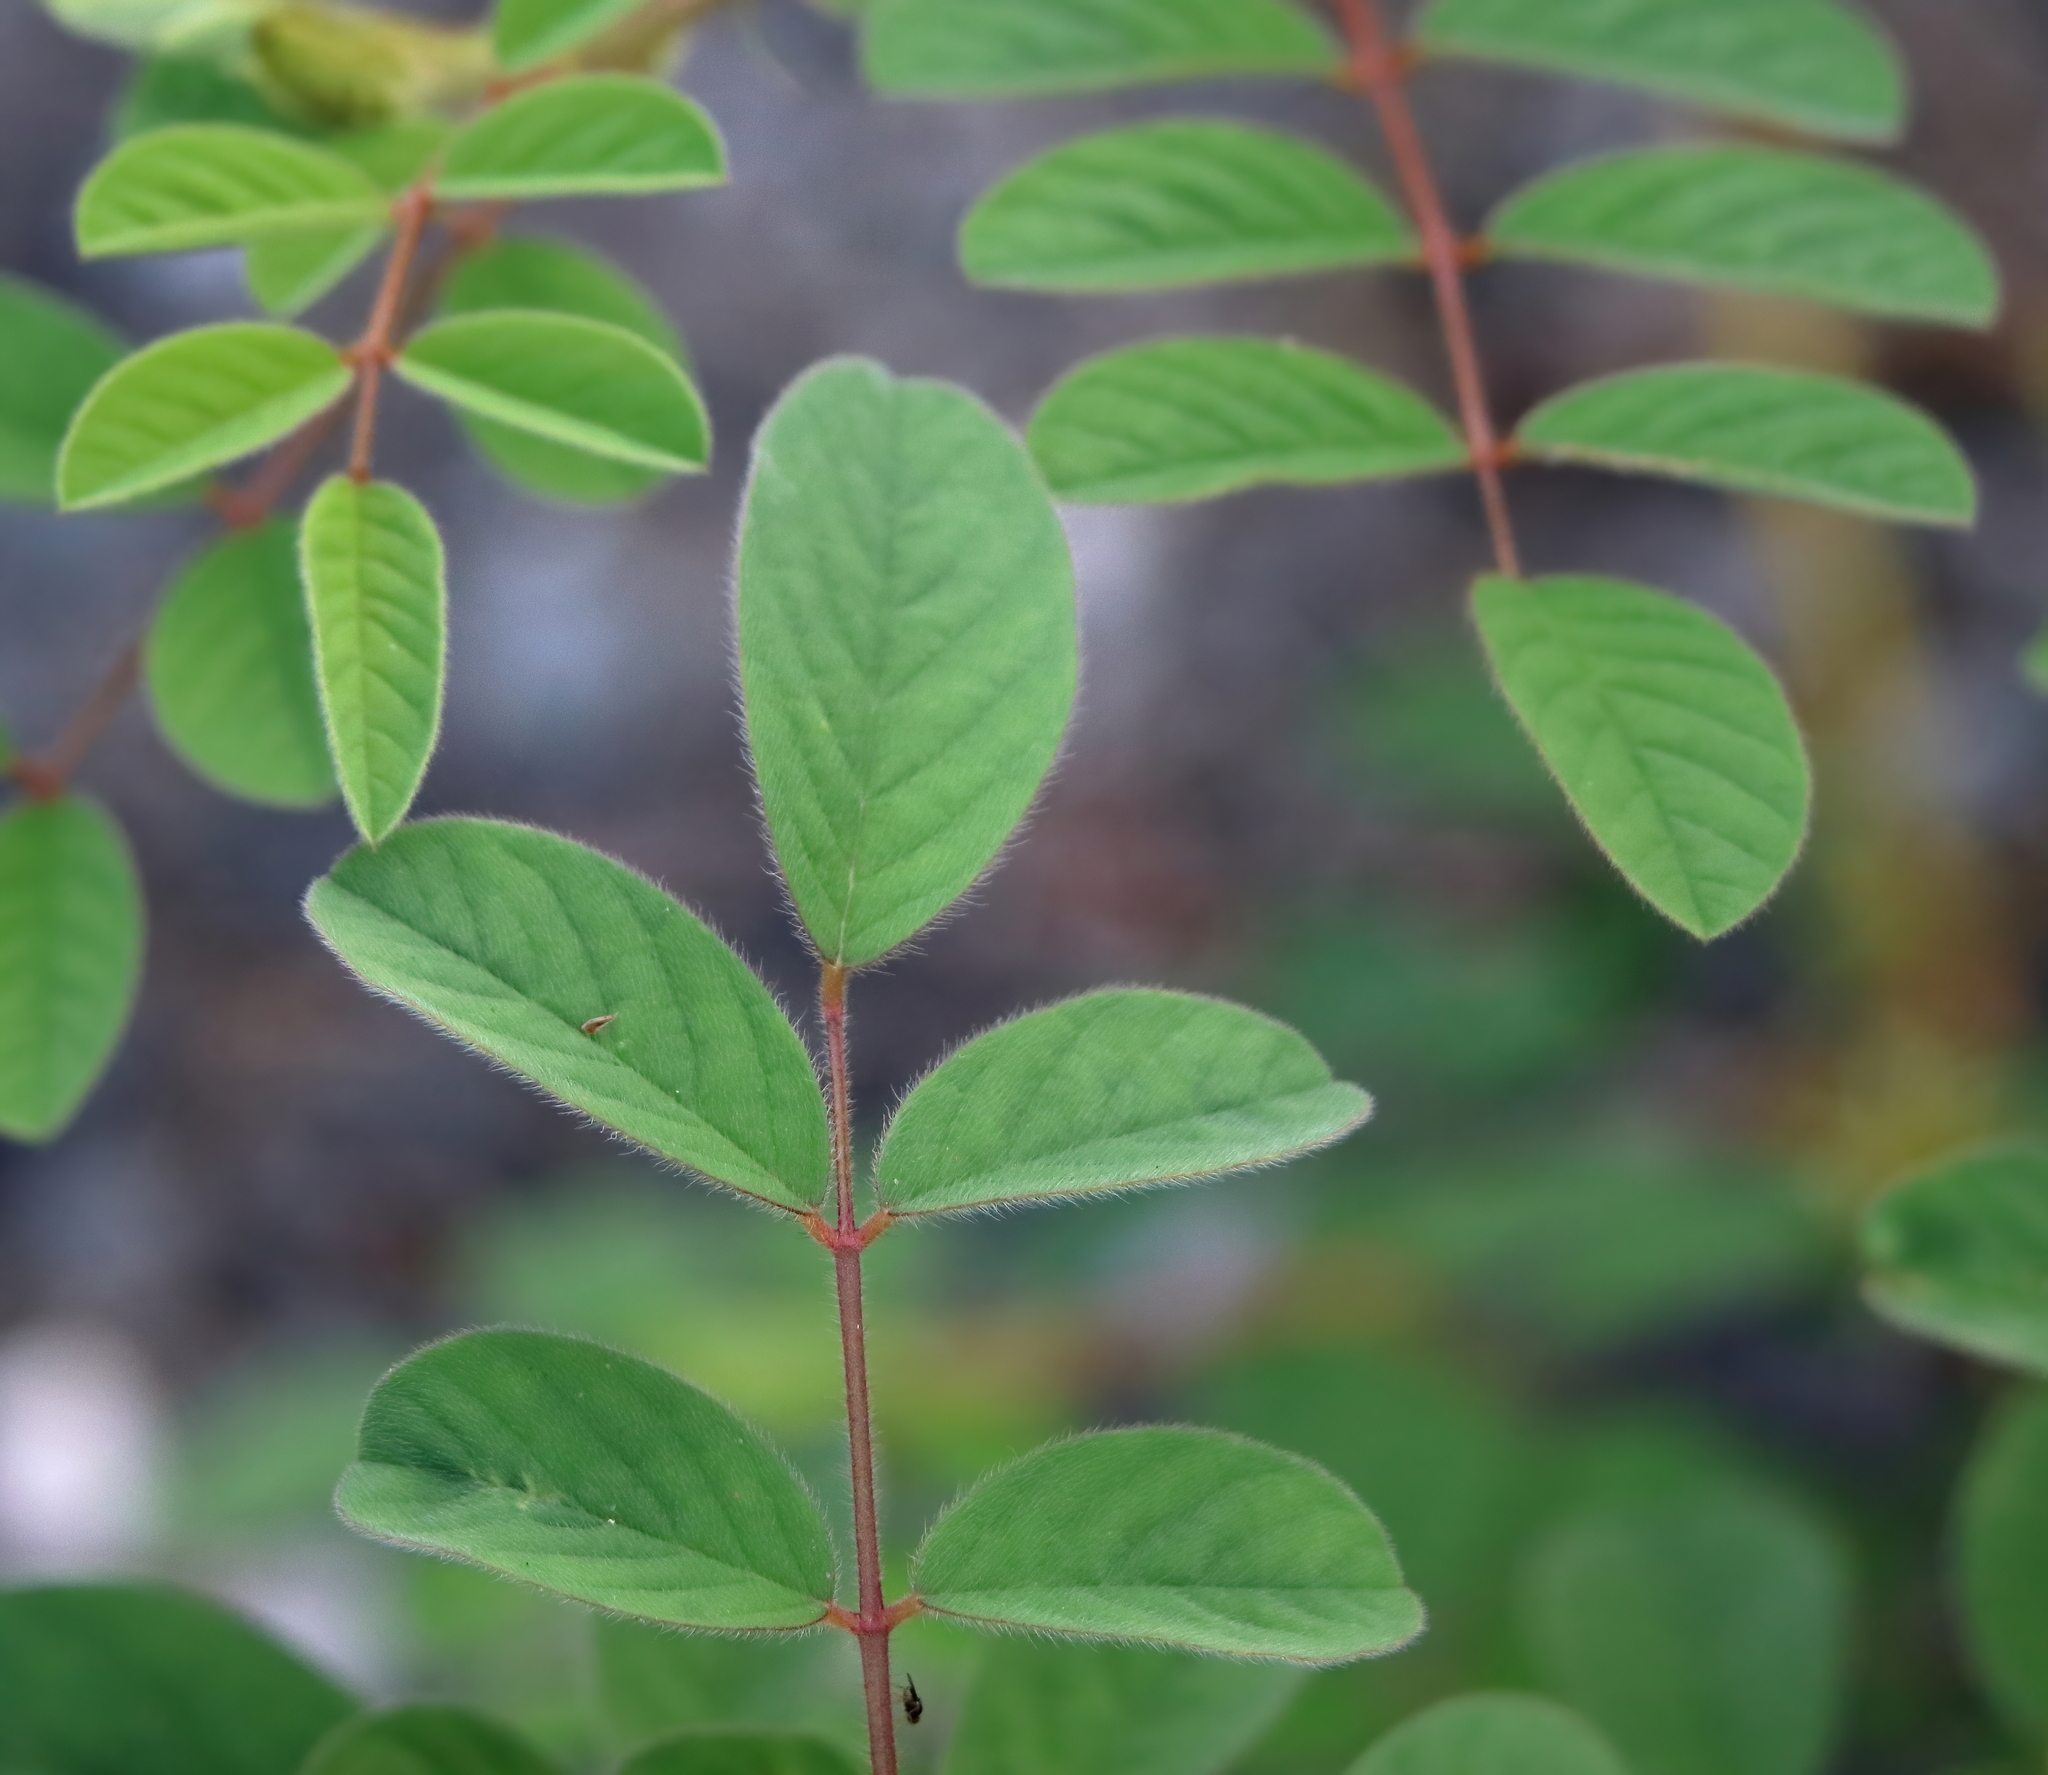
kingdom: Plantae
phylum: Tracheophyta
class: Magnoliopsida
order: Fabales
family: Fabaceae
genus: Indigofera
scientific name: Indigofera hirsuta
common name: Hairy indigo
